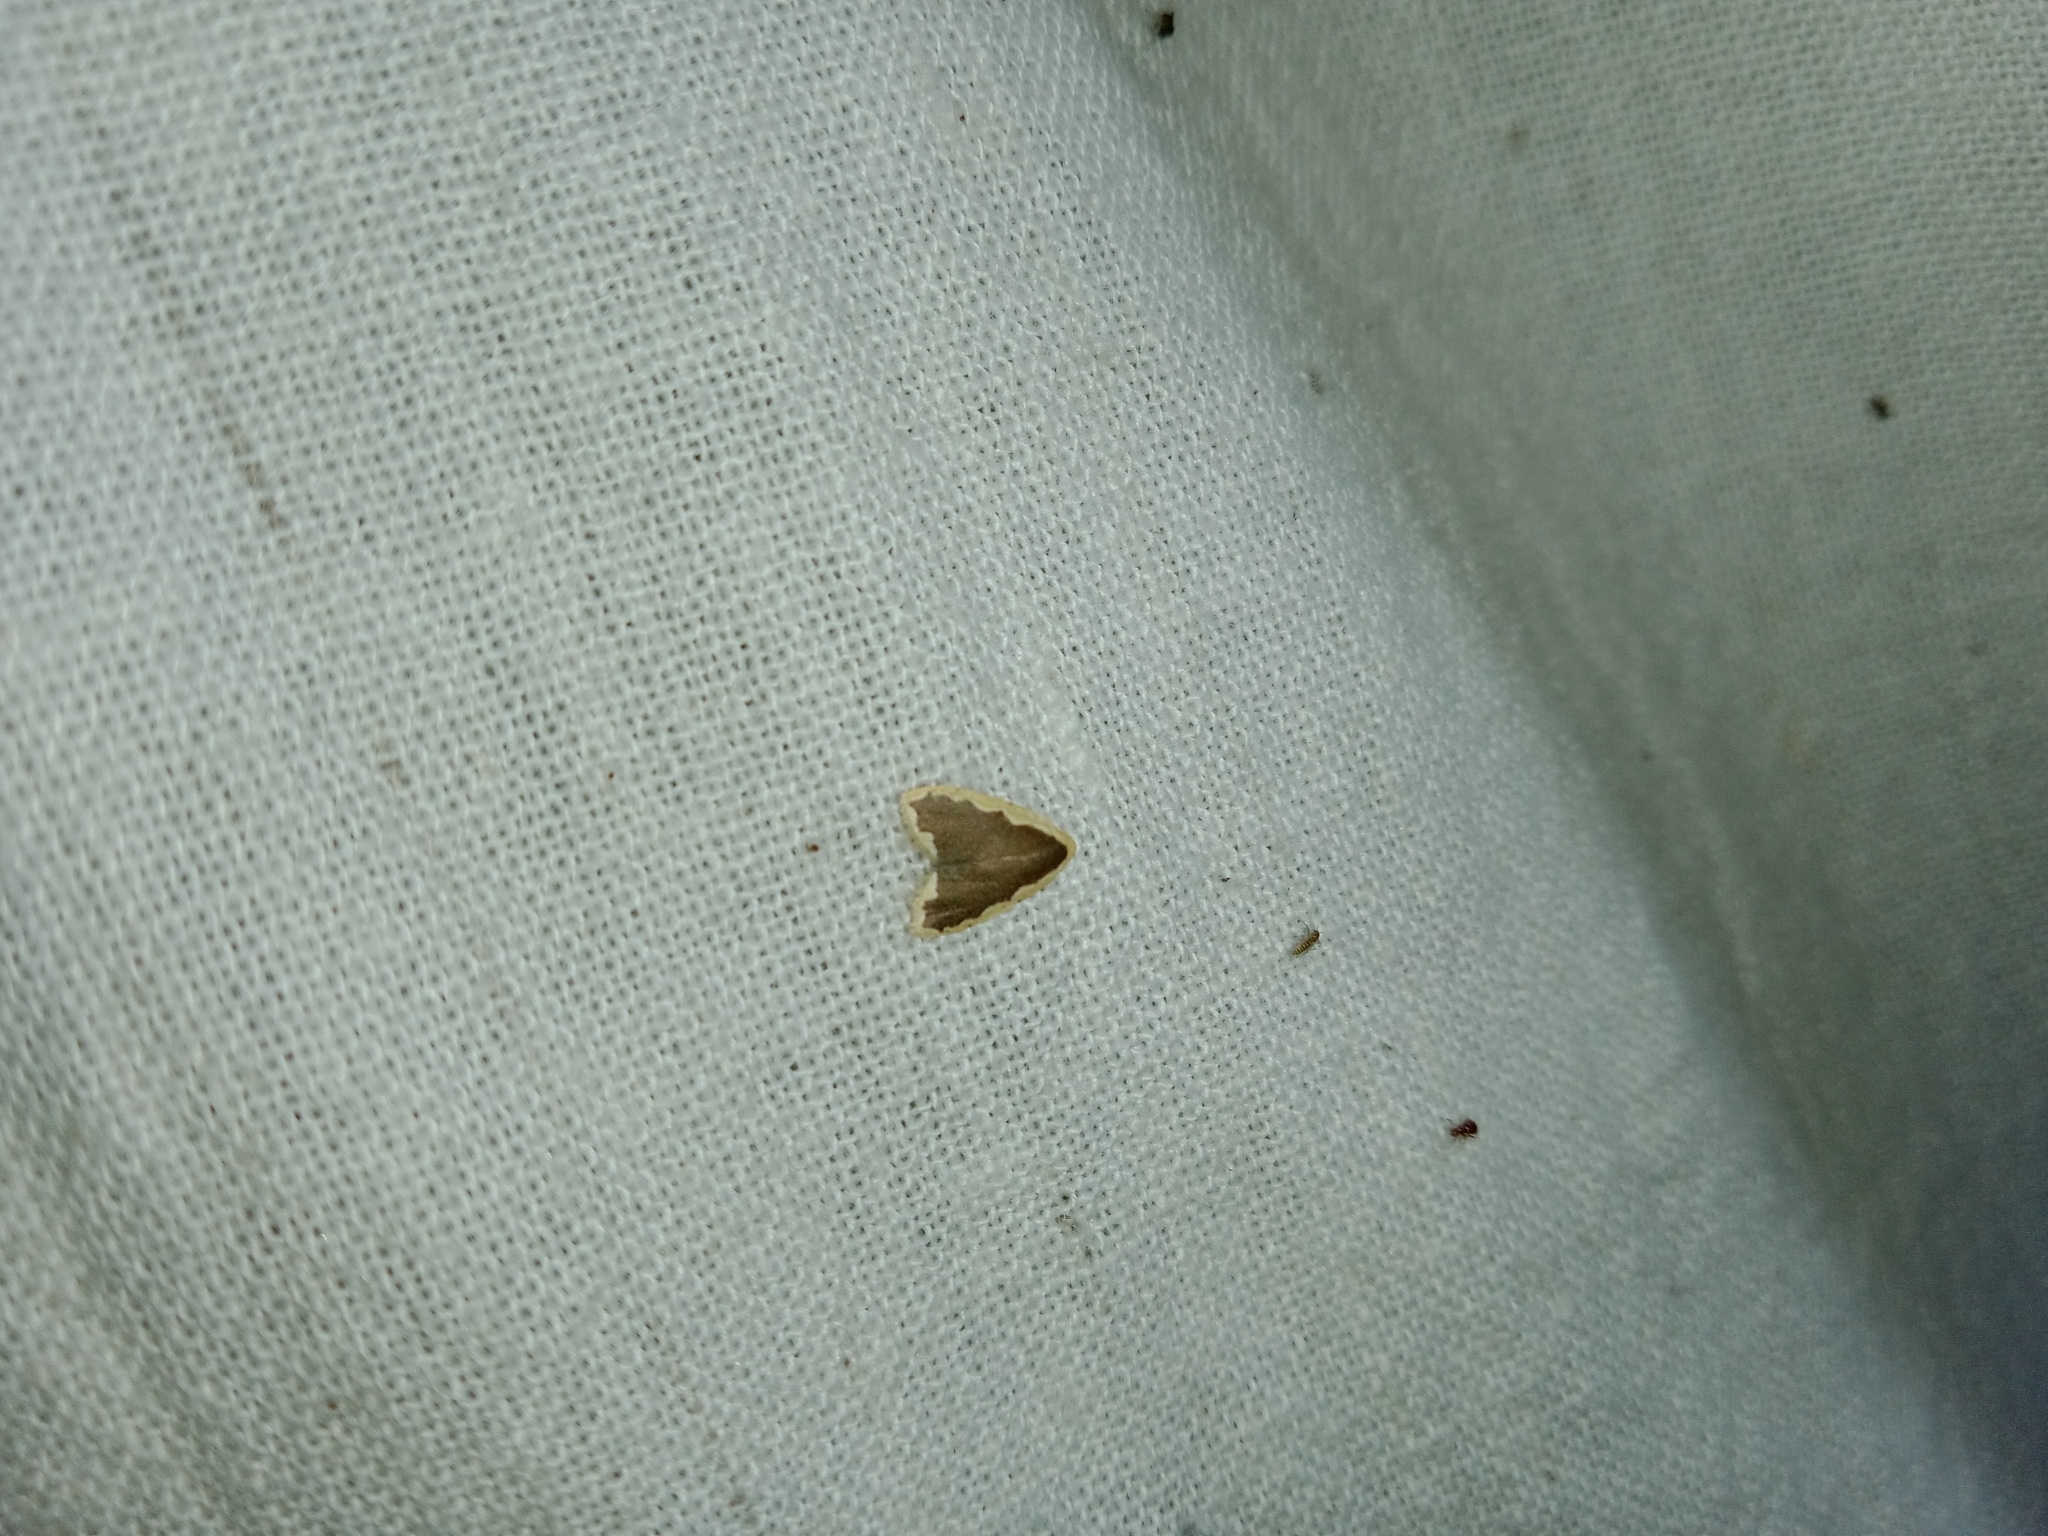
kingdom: Animalia
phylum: Arthropoda
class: Insecta
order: Lepidoptera
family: Erebidae
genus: Diduga
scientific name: Diduga flavicostata
